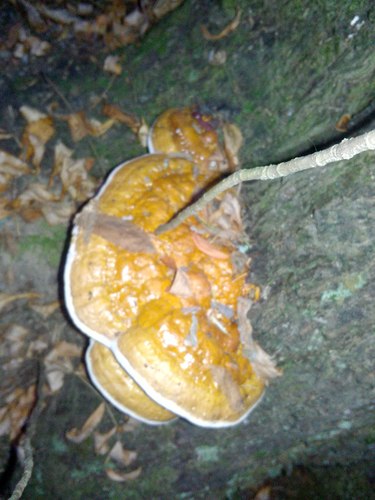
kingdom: Fungi
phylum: Basidiomycota
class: Agaricomycetes
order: Polyporales
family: Fomitopsidaceae
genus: Fomitopsis
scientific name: Fomitopsis pinicola
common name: Red-belted bracket
